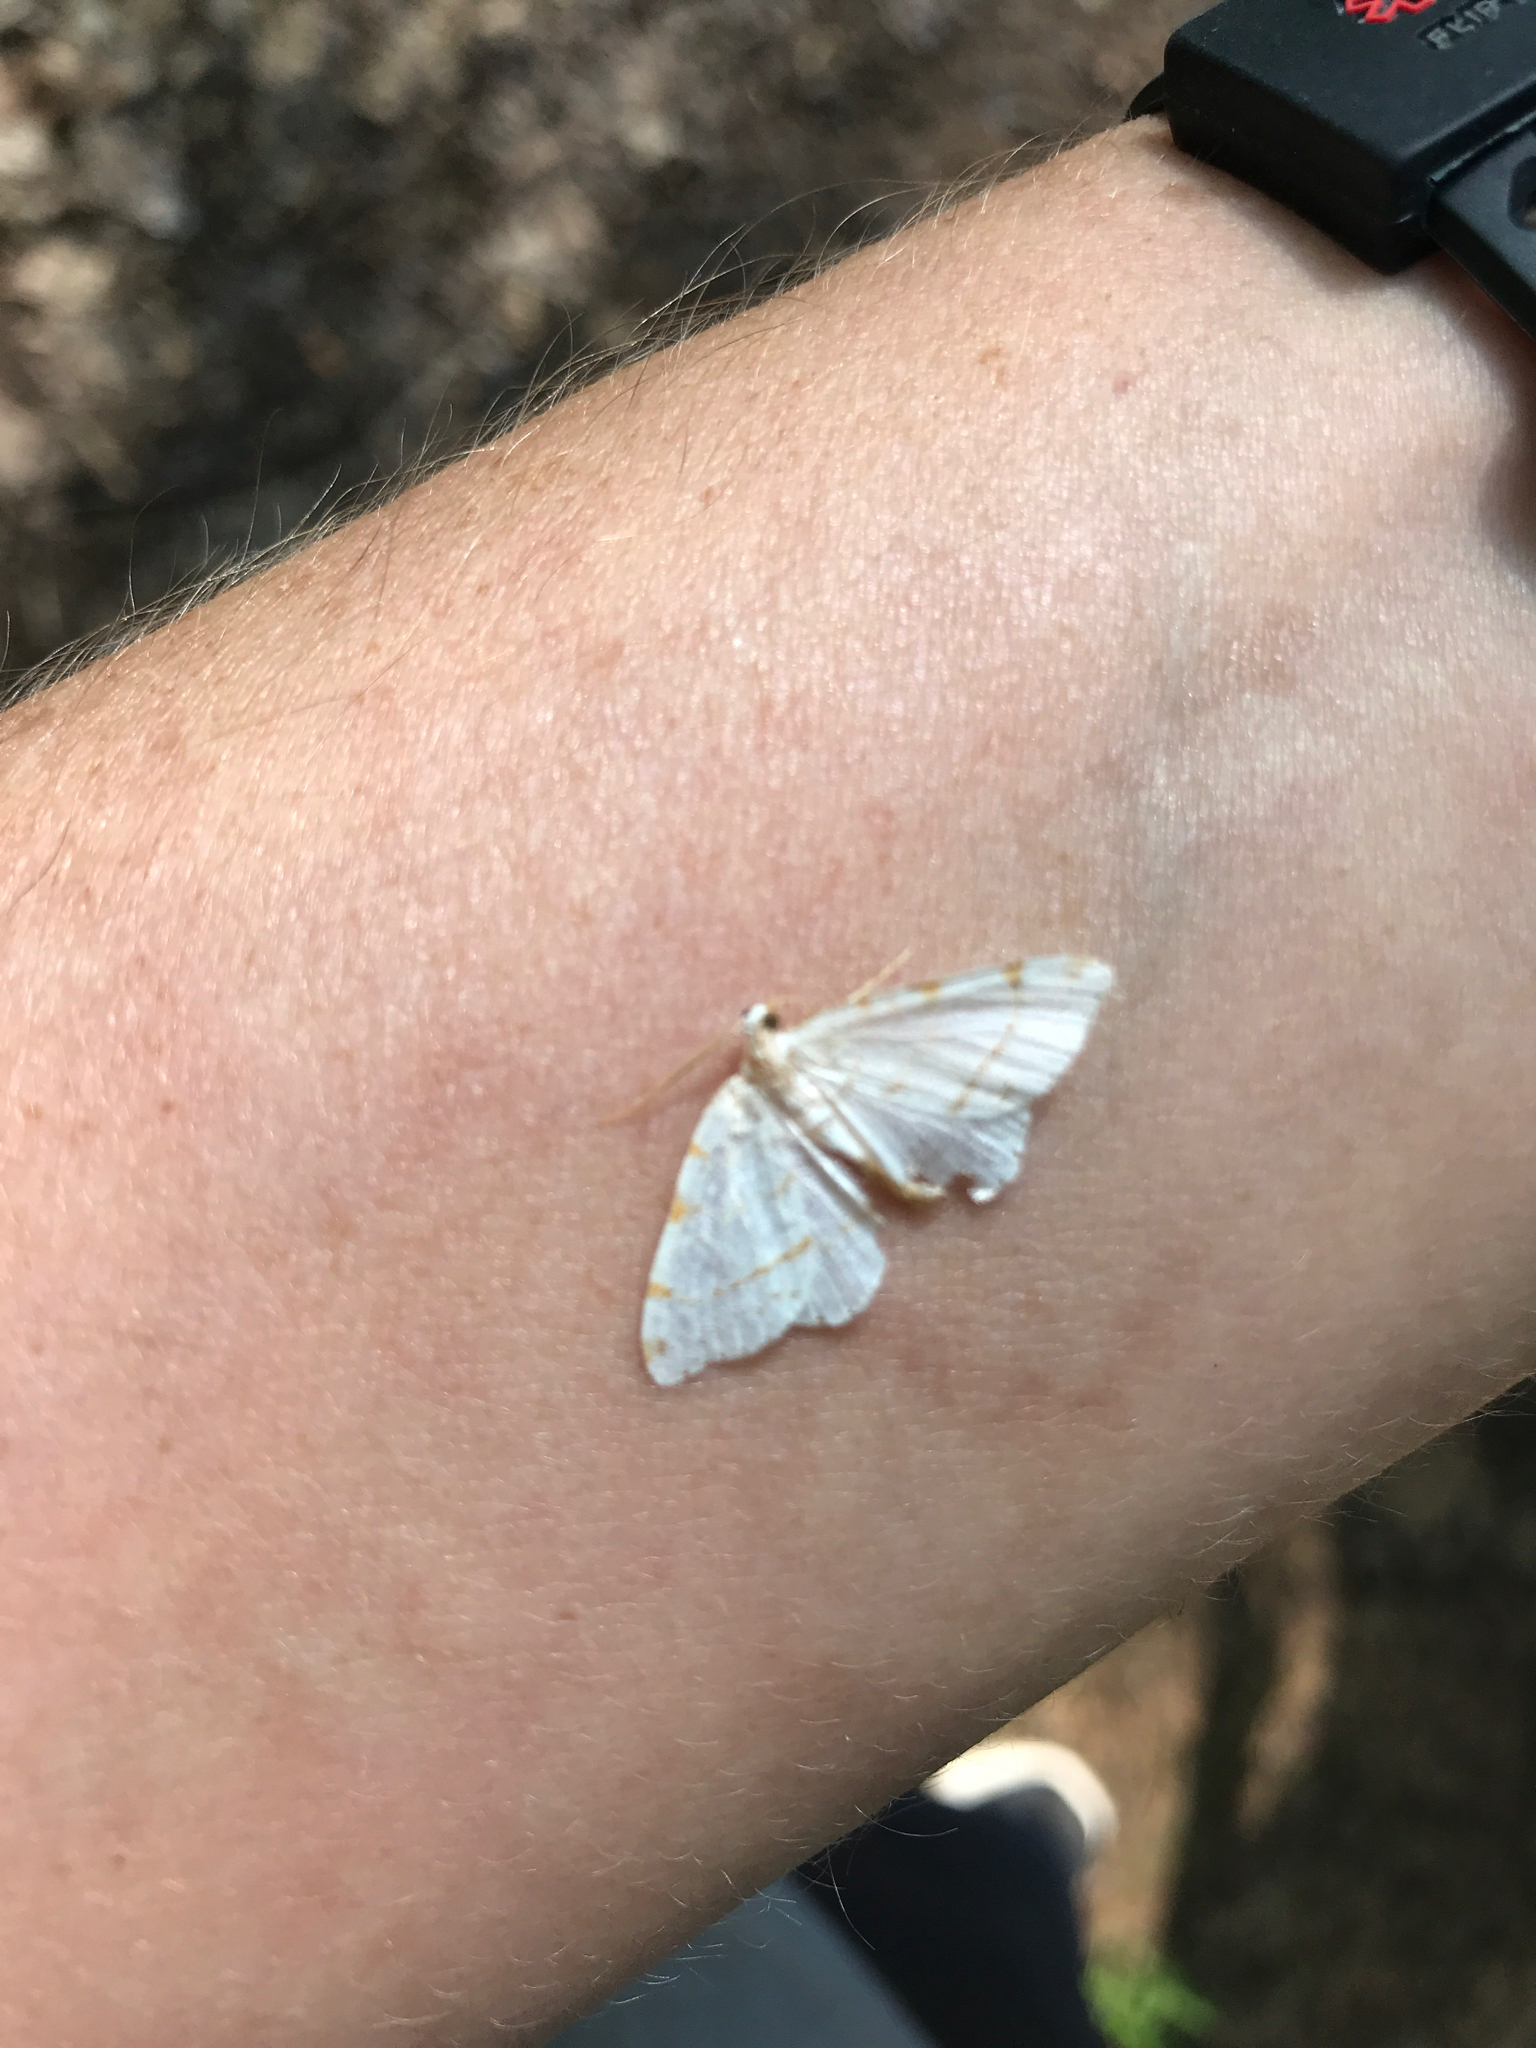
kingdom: Animalia
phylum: Arthropoda
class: Insecta
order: Lepidoptera
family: Geometridae
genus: Macaria
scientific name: Macaria pustularia
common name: Lesser maple spanworm moth
